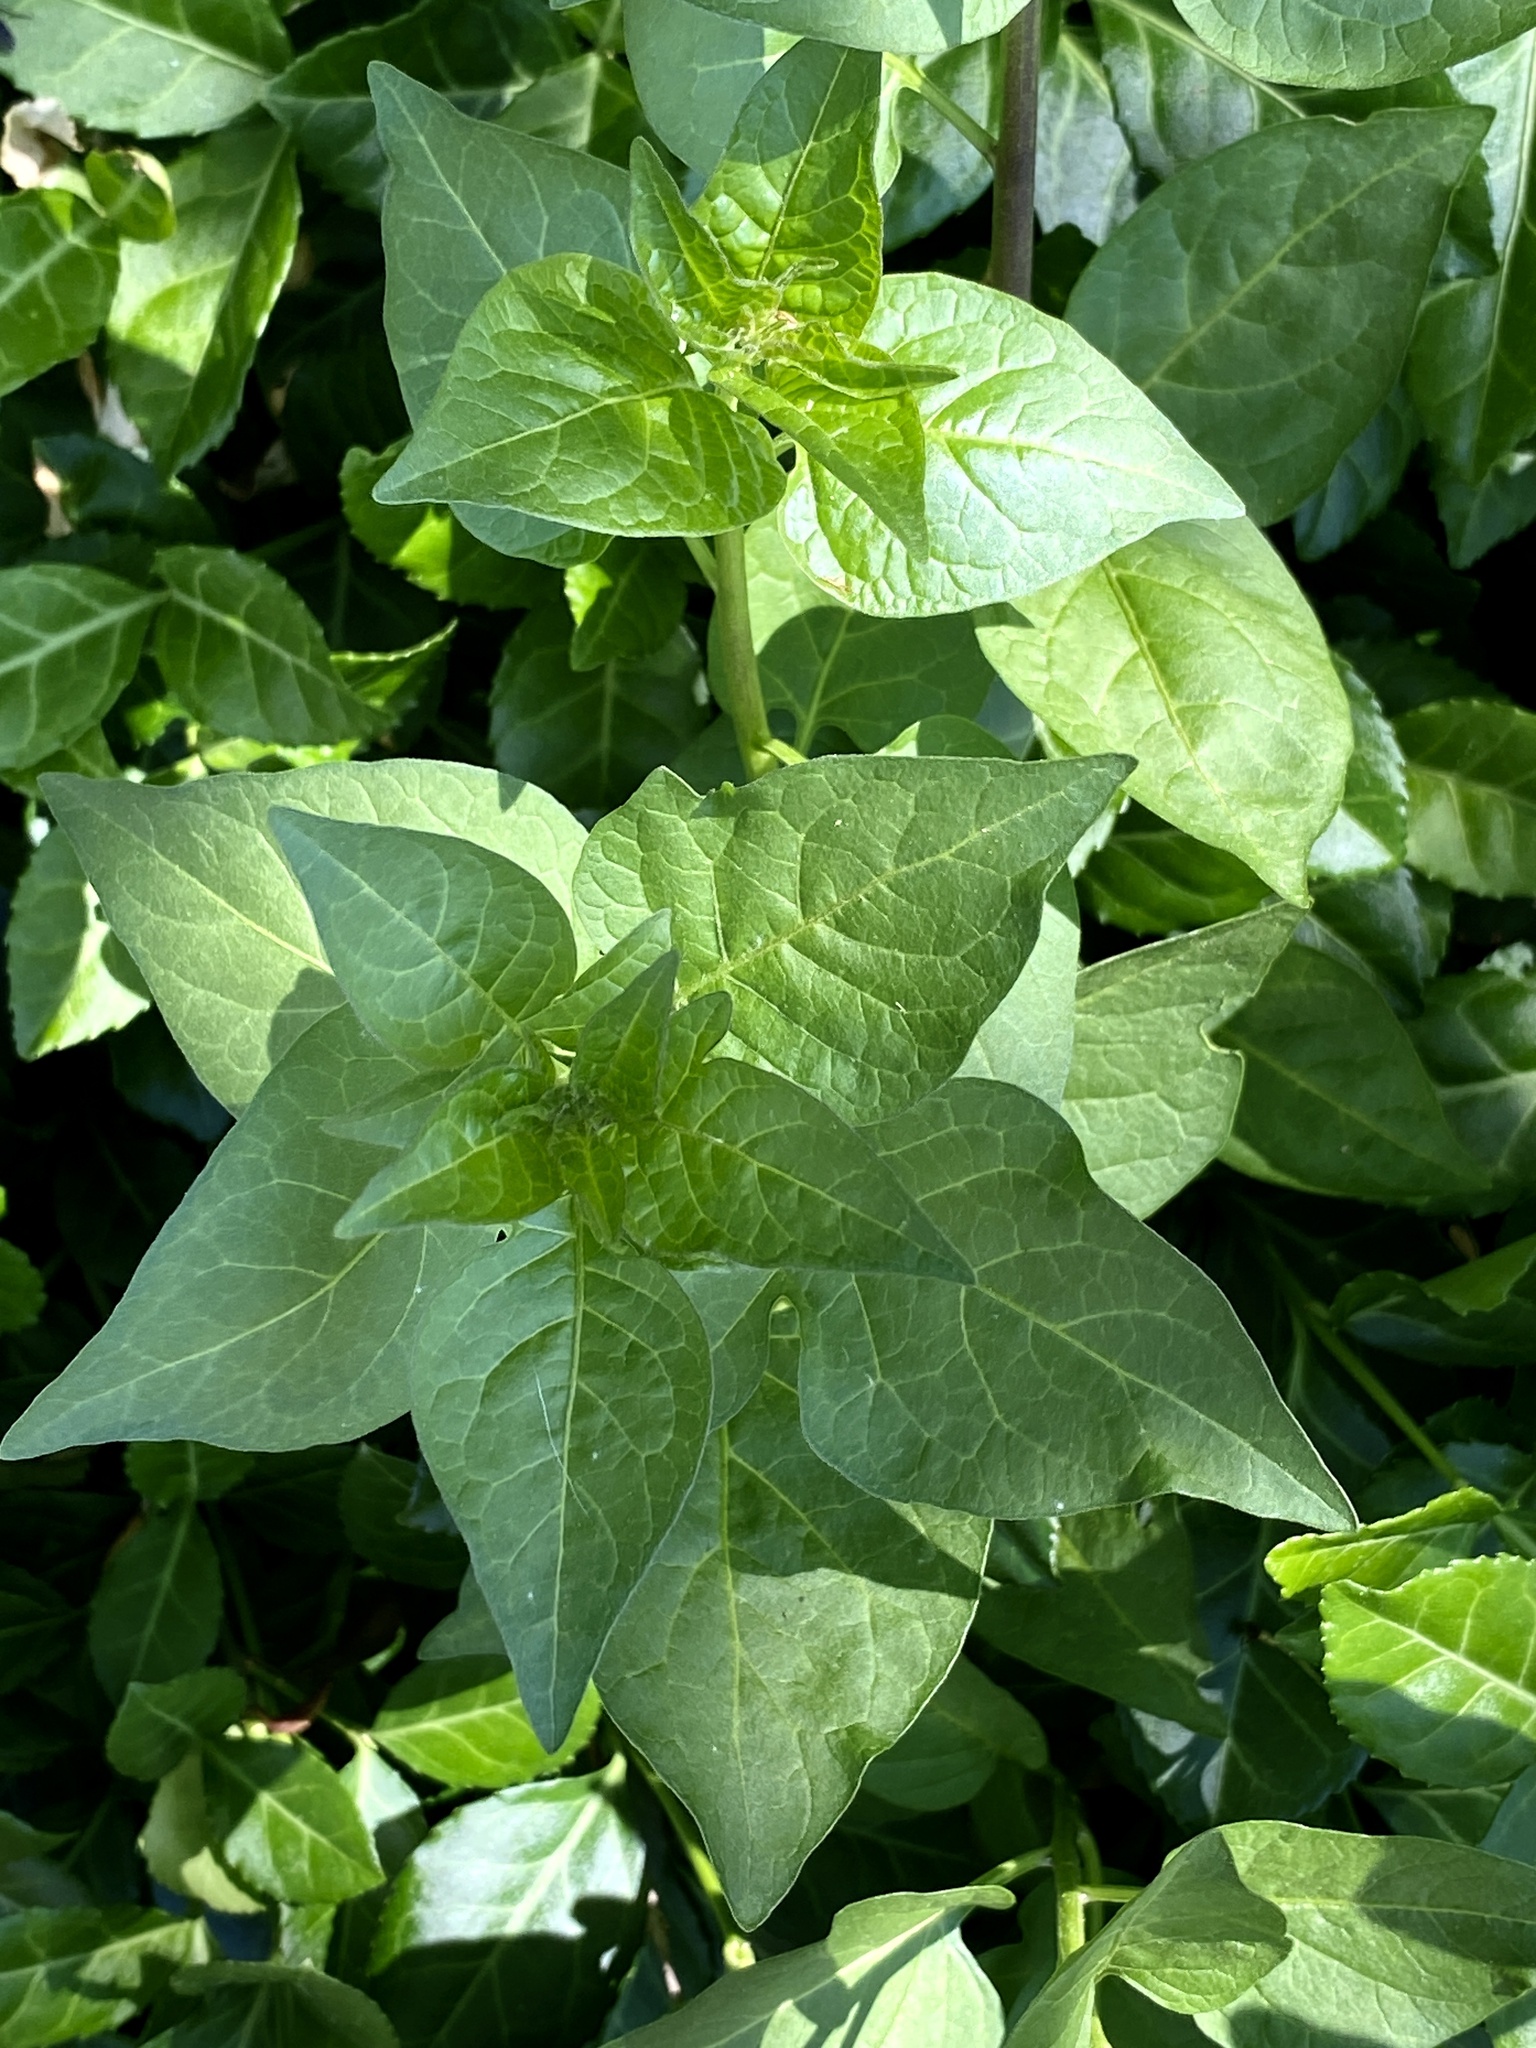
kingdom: Plantae
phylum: Tracheophyta
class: Magnoliopsida
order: Solanales
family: Solanaceae
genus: Solanum
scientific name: Solanum dulcamara
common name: Climbing nightshade
